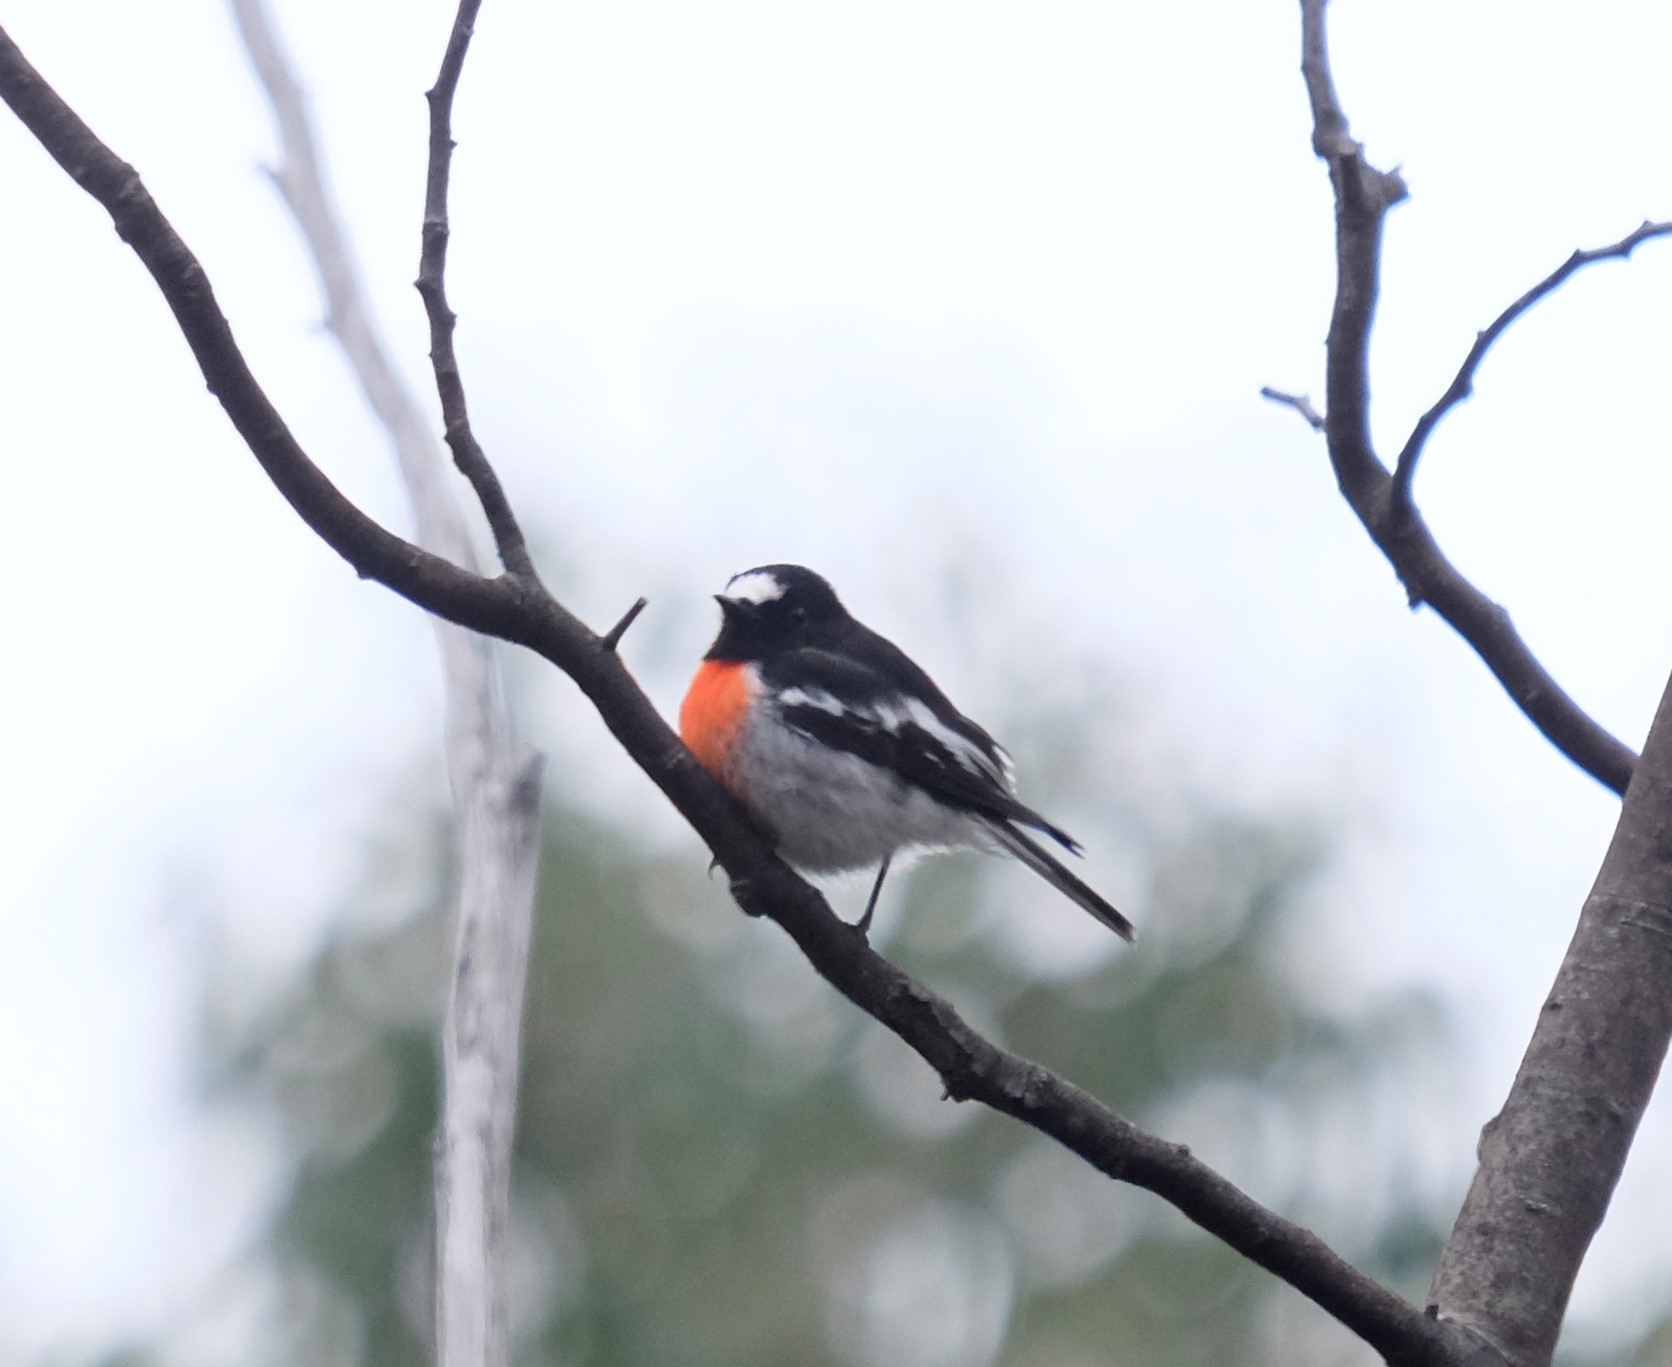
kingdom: Animalia
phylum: Chordata
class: Aves
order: Passeriformes
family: Petroicidae
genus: Petroica
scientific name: Petroica boodang
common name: Scarlet robin
